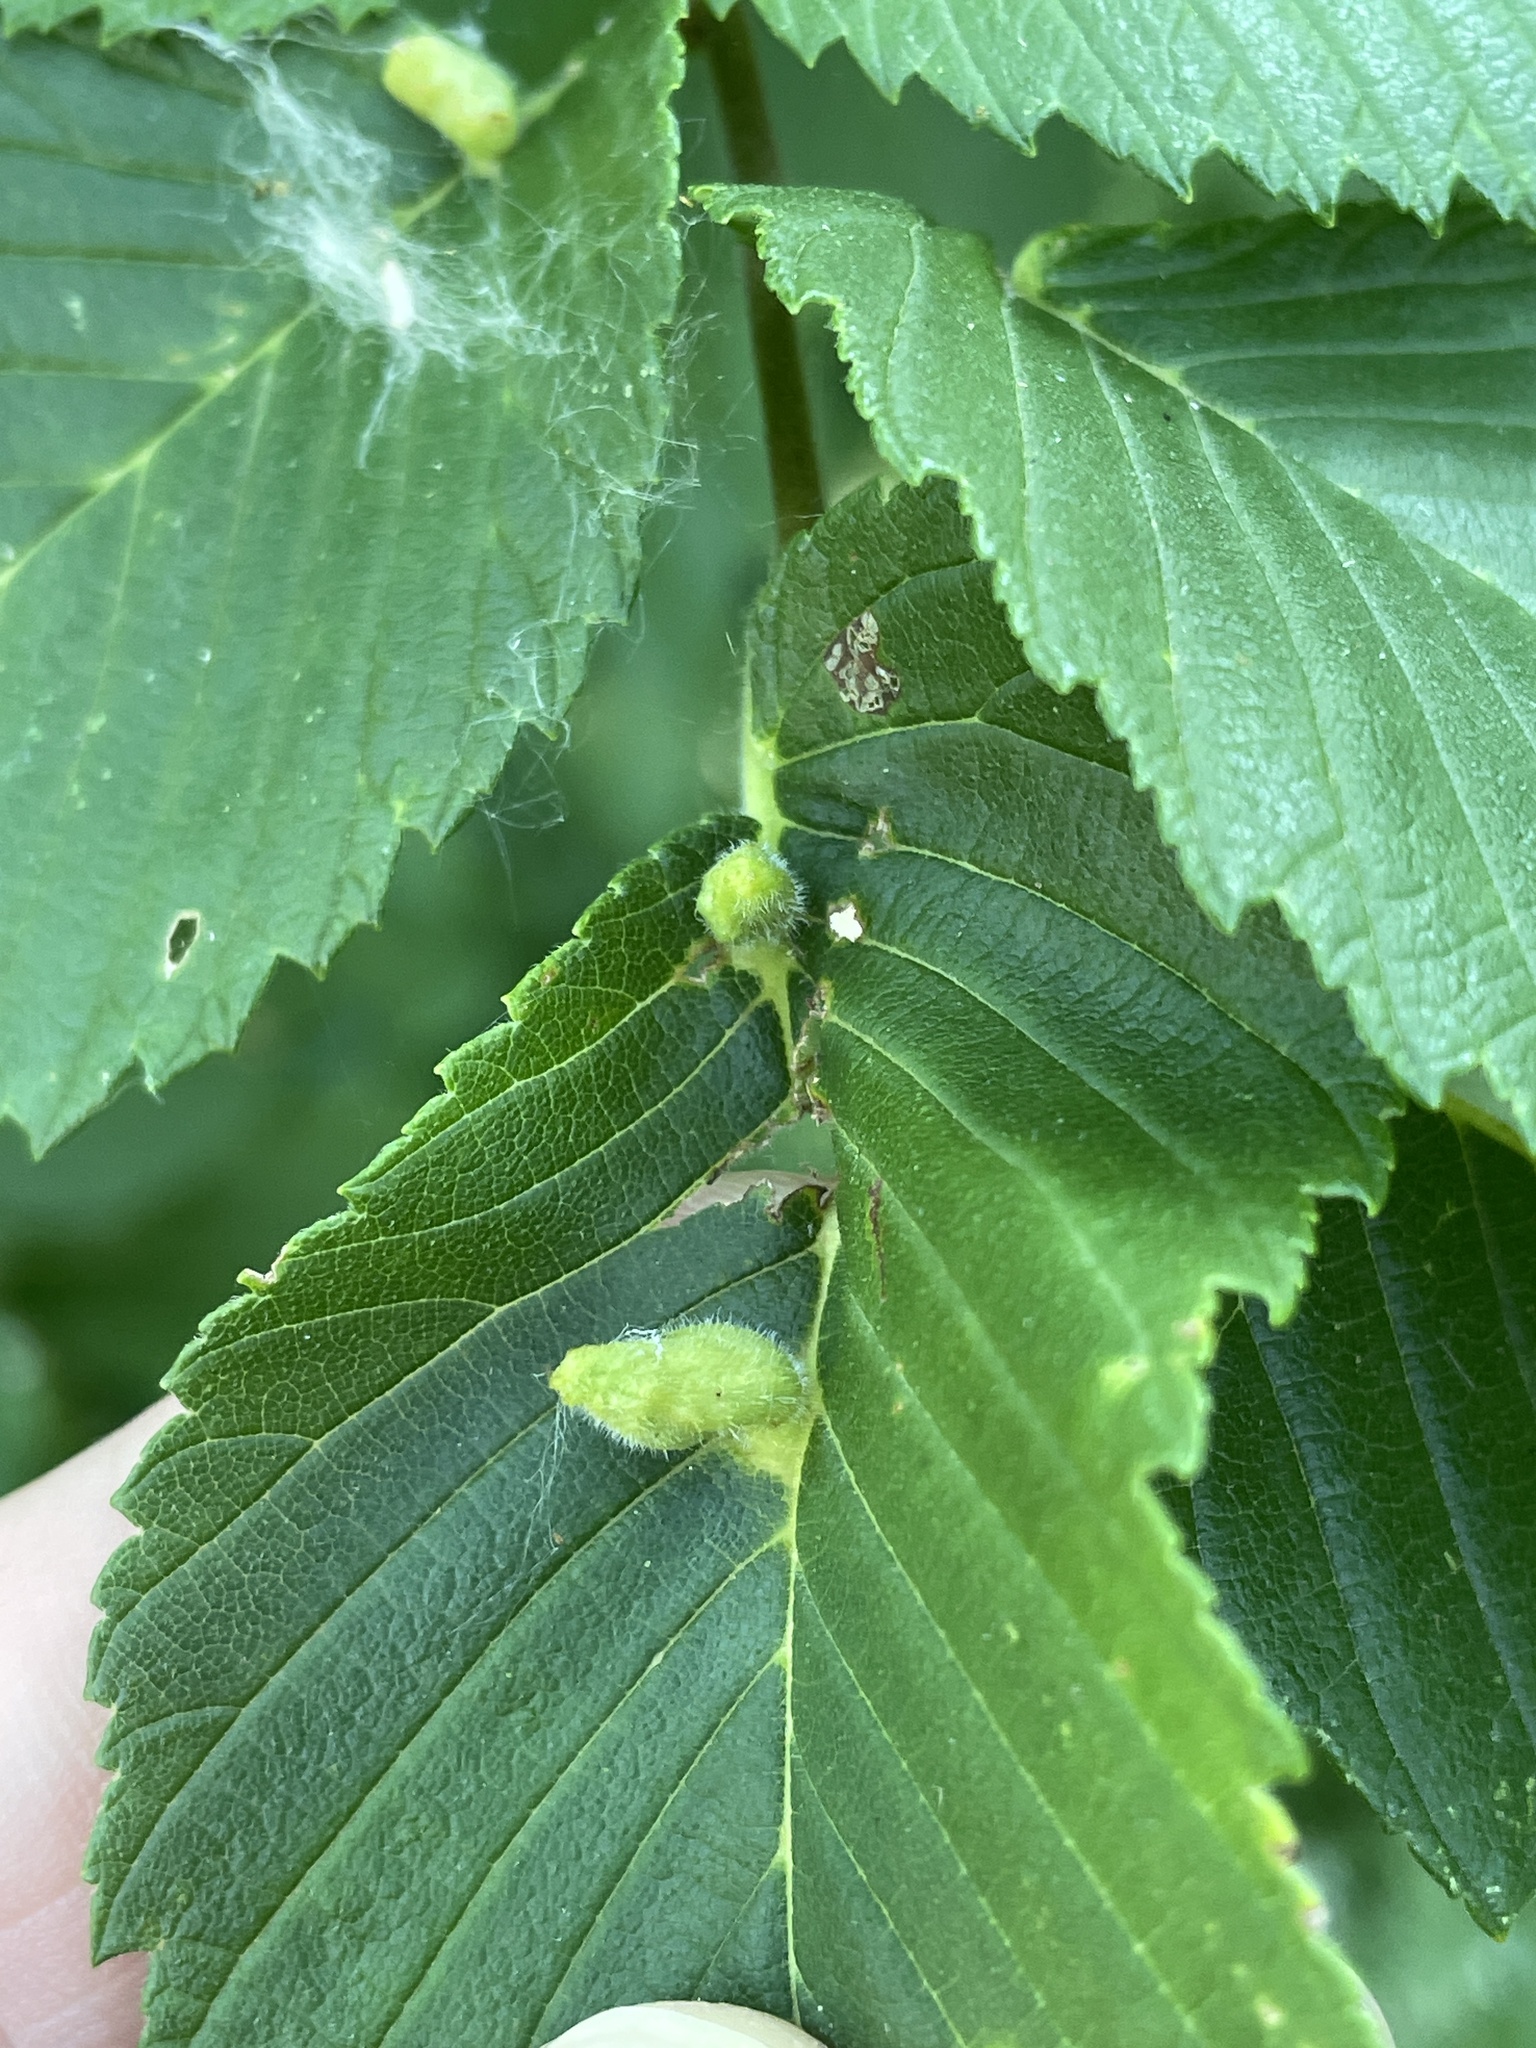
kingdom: Animalia
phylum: Arthropoda
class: Arachnida
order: Trombidiformes
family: Eriophyidae
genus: Aceria
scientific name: Aceria
